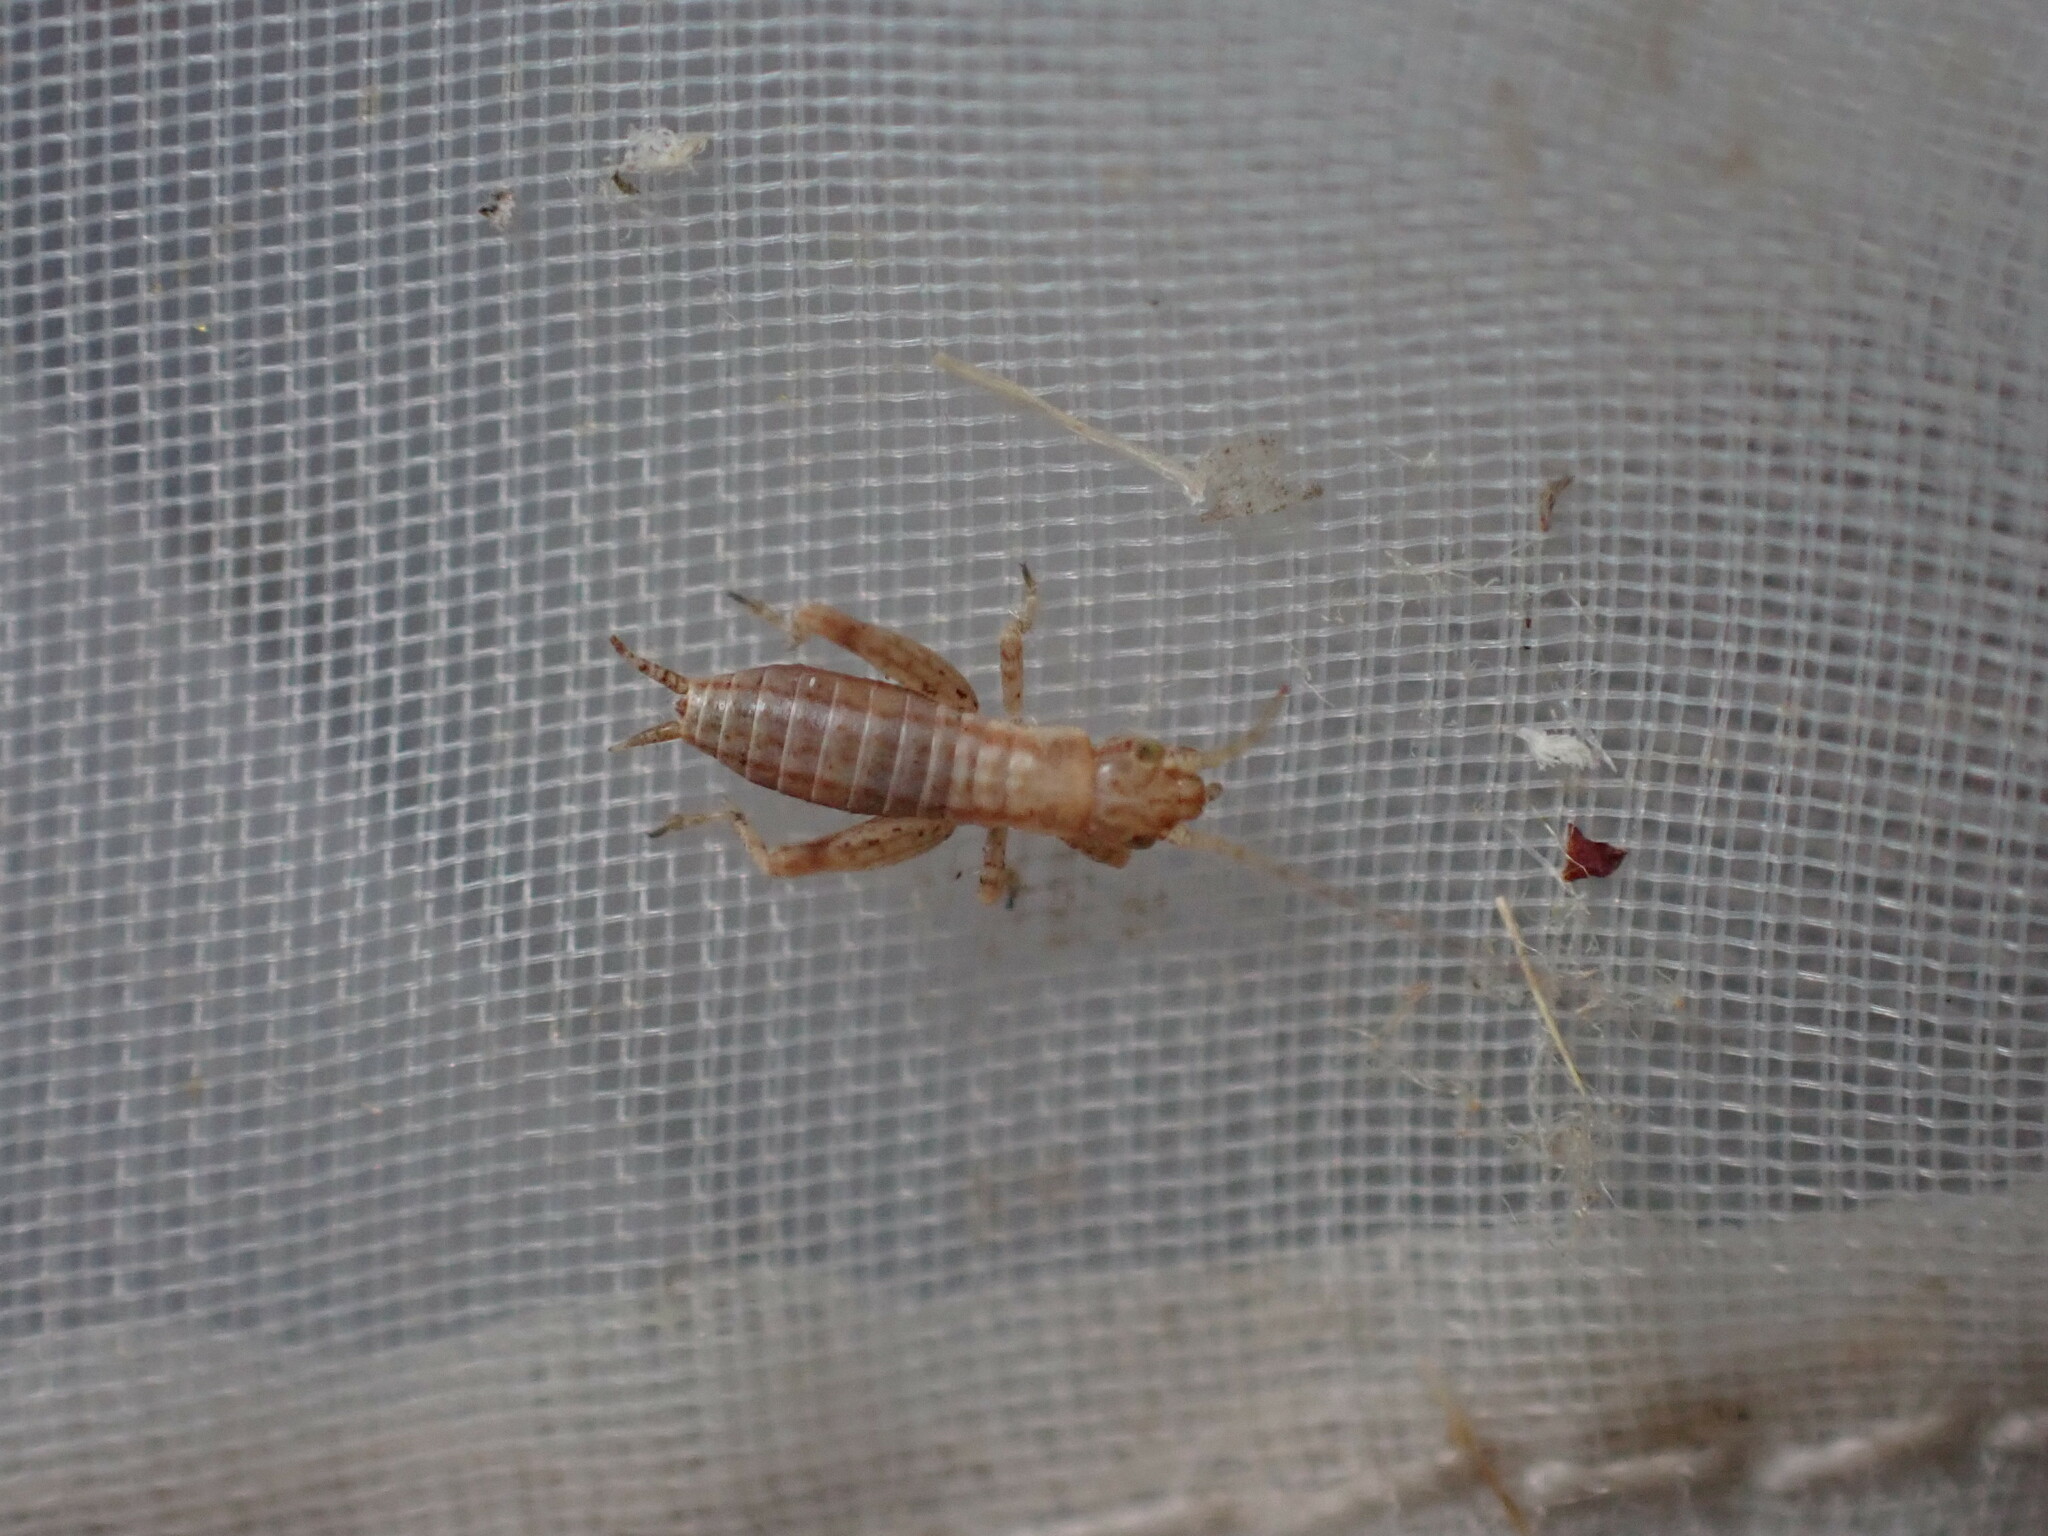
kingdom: Animalia
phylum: Arthropoda
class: Insecta
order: Orthoptera
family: Mogoplistidae
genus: Arachnocephalus
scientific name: Arachnocephalus vestitus
